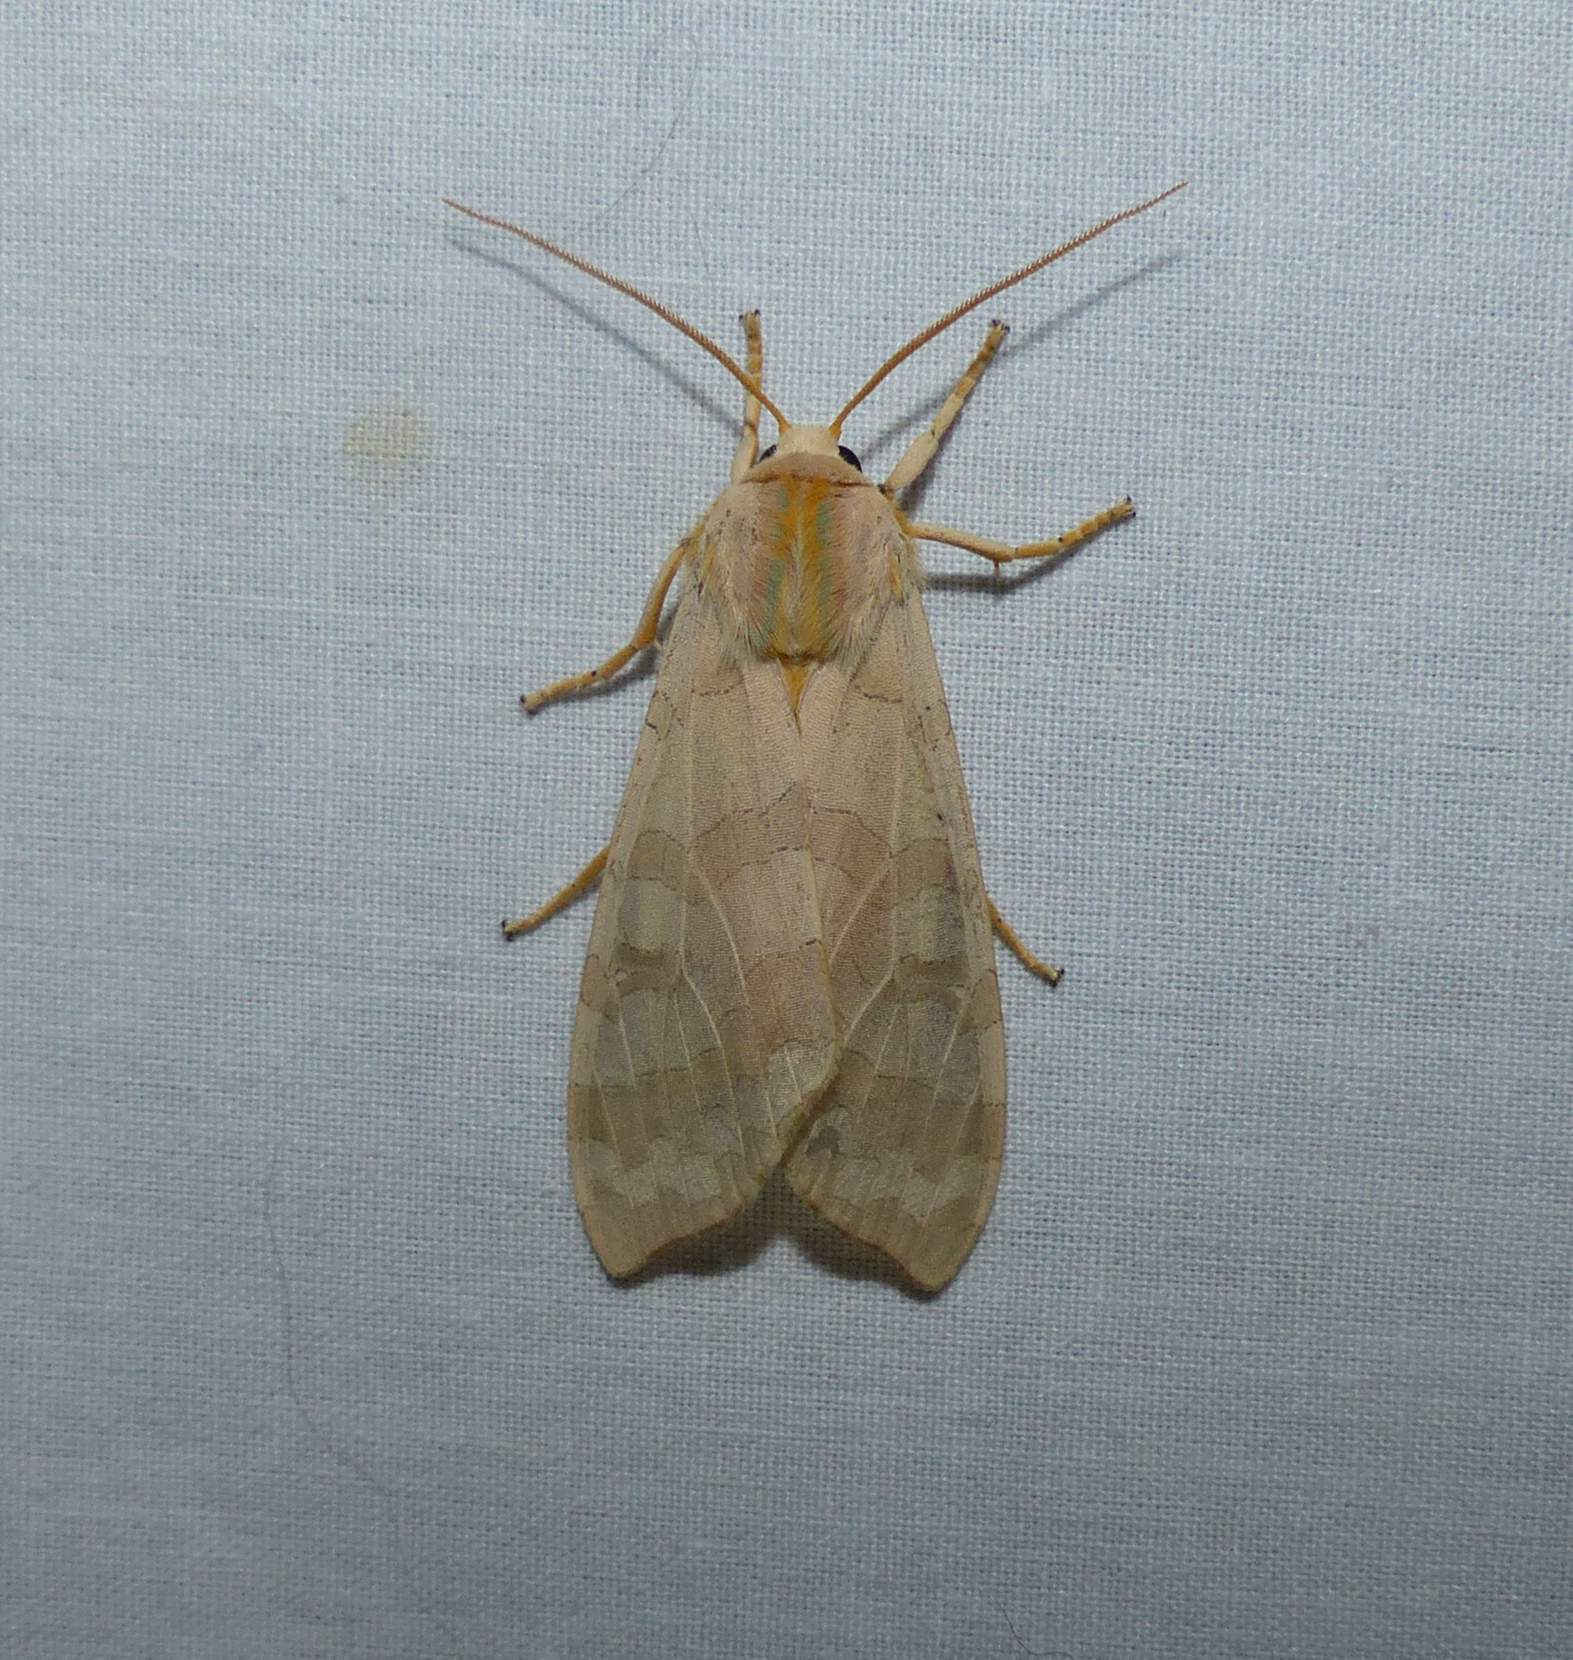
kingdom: Animalia
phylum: Arthropoda
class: Insecta
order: Lepidoptera
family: Erebidae
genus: Halysidota
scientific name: Halysidota tessellaris
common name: Banded tussock moth
